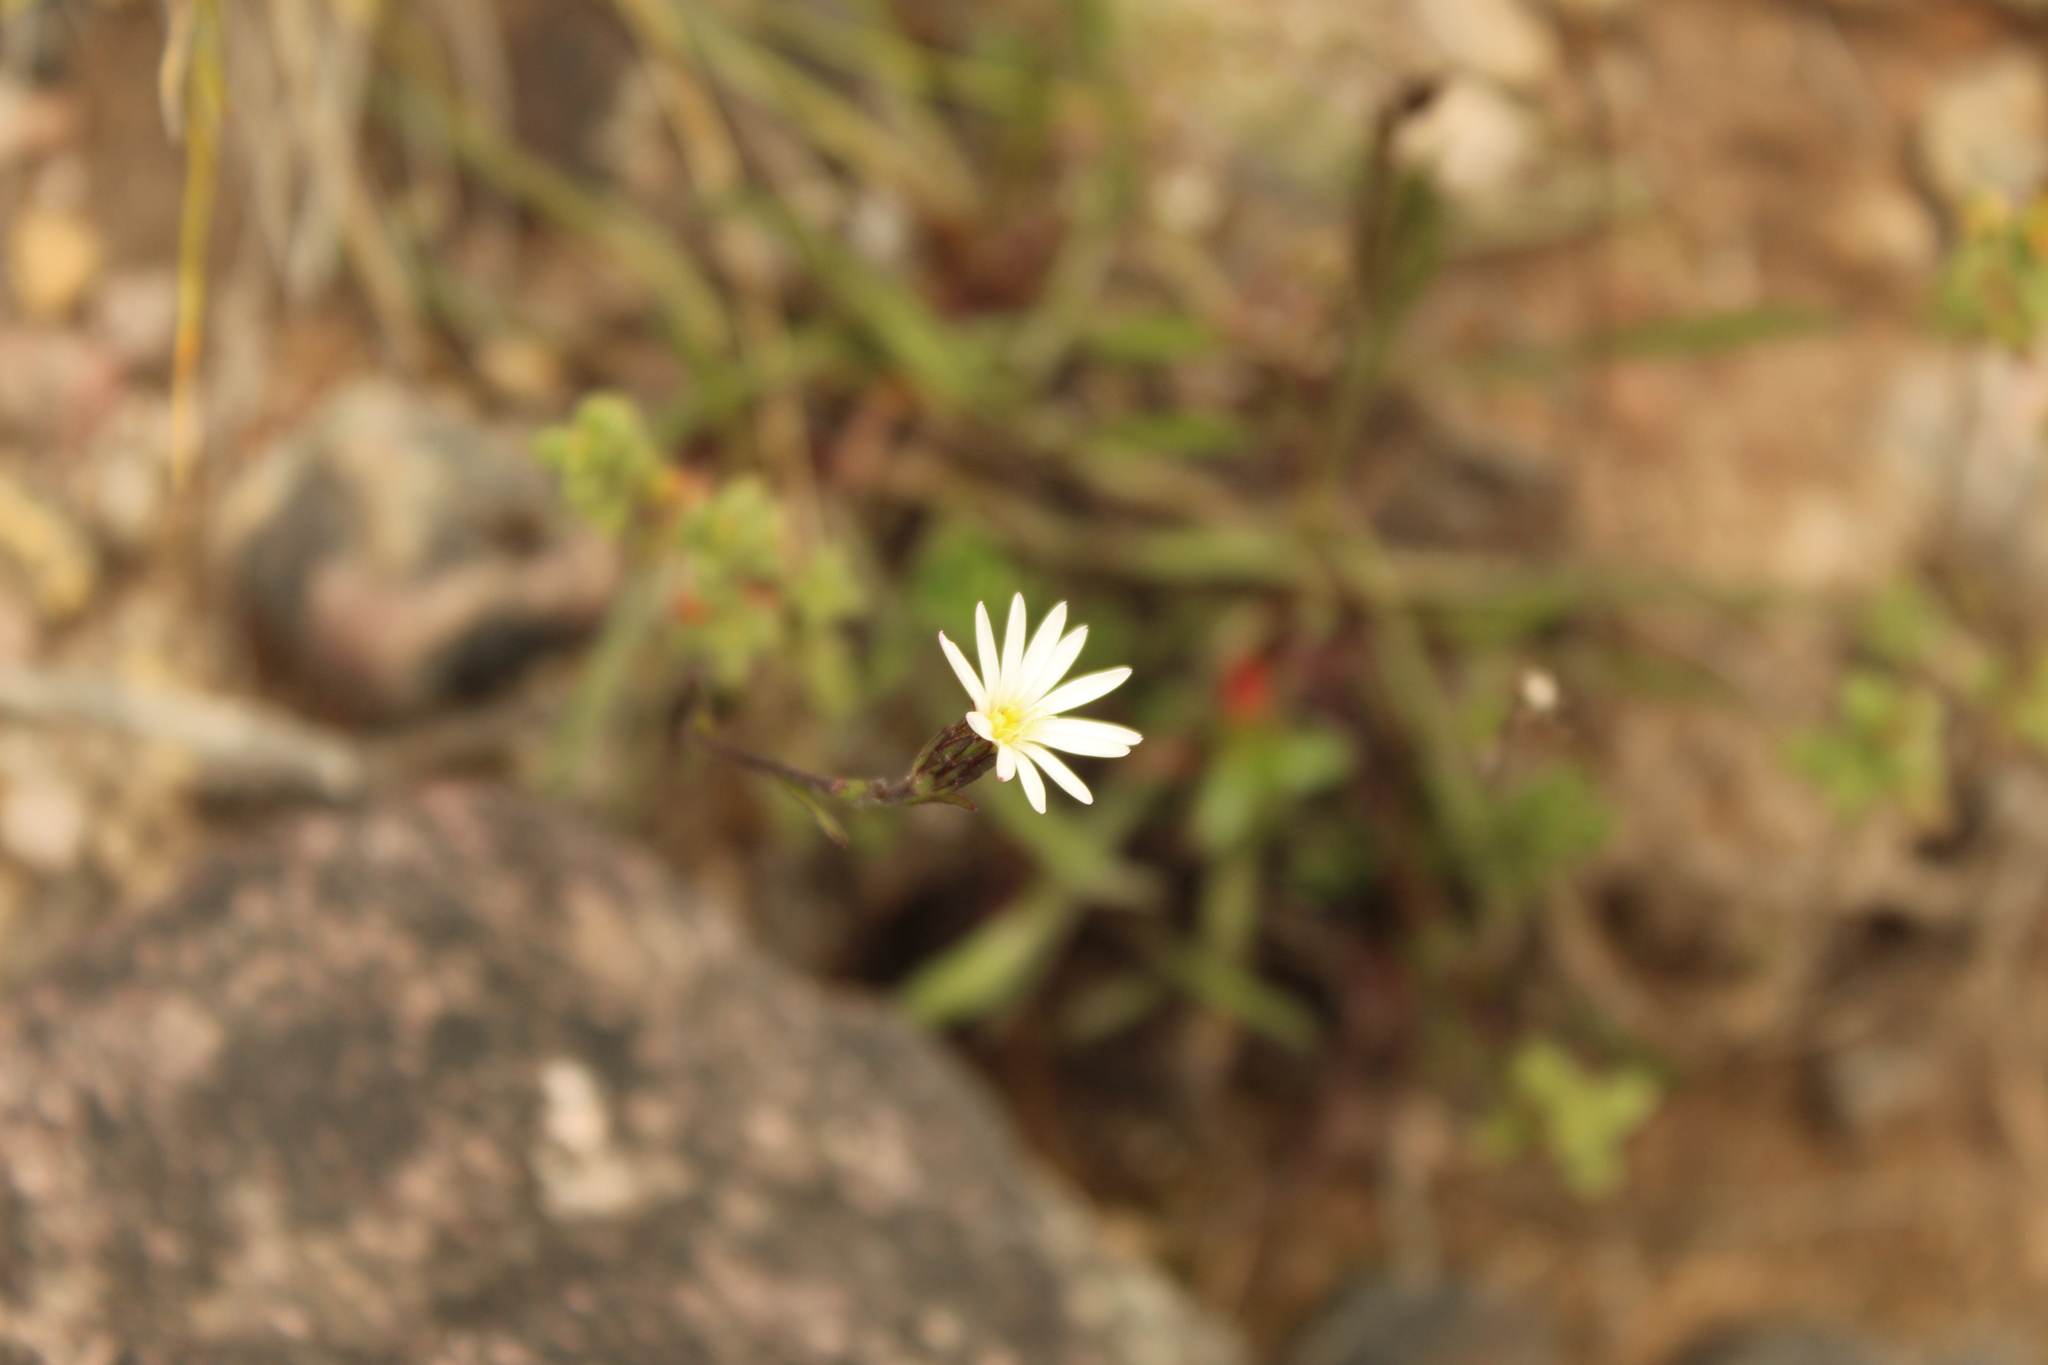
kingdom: Plantae
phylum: Tracheophyta
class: Magnoliopsida
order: Asterales
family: Asteraceae
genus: Noticastrum
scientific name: Noticastrum marginatum
